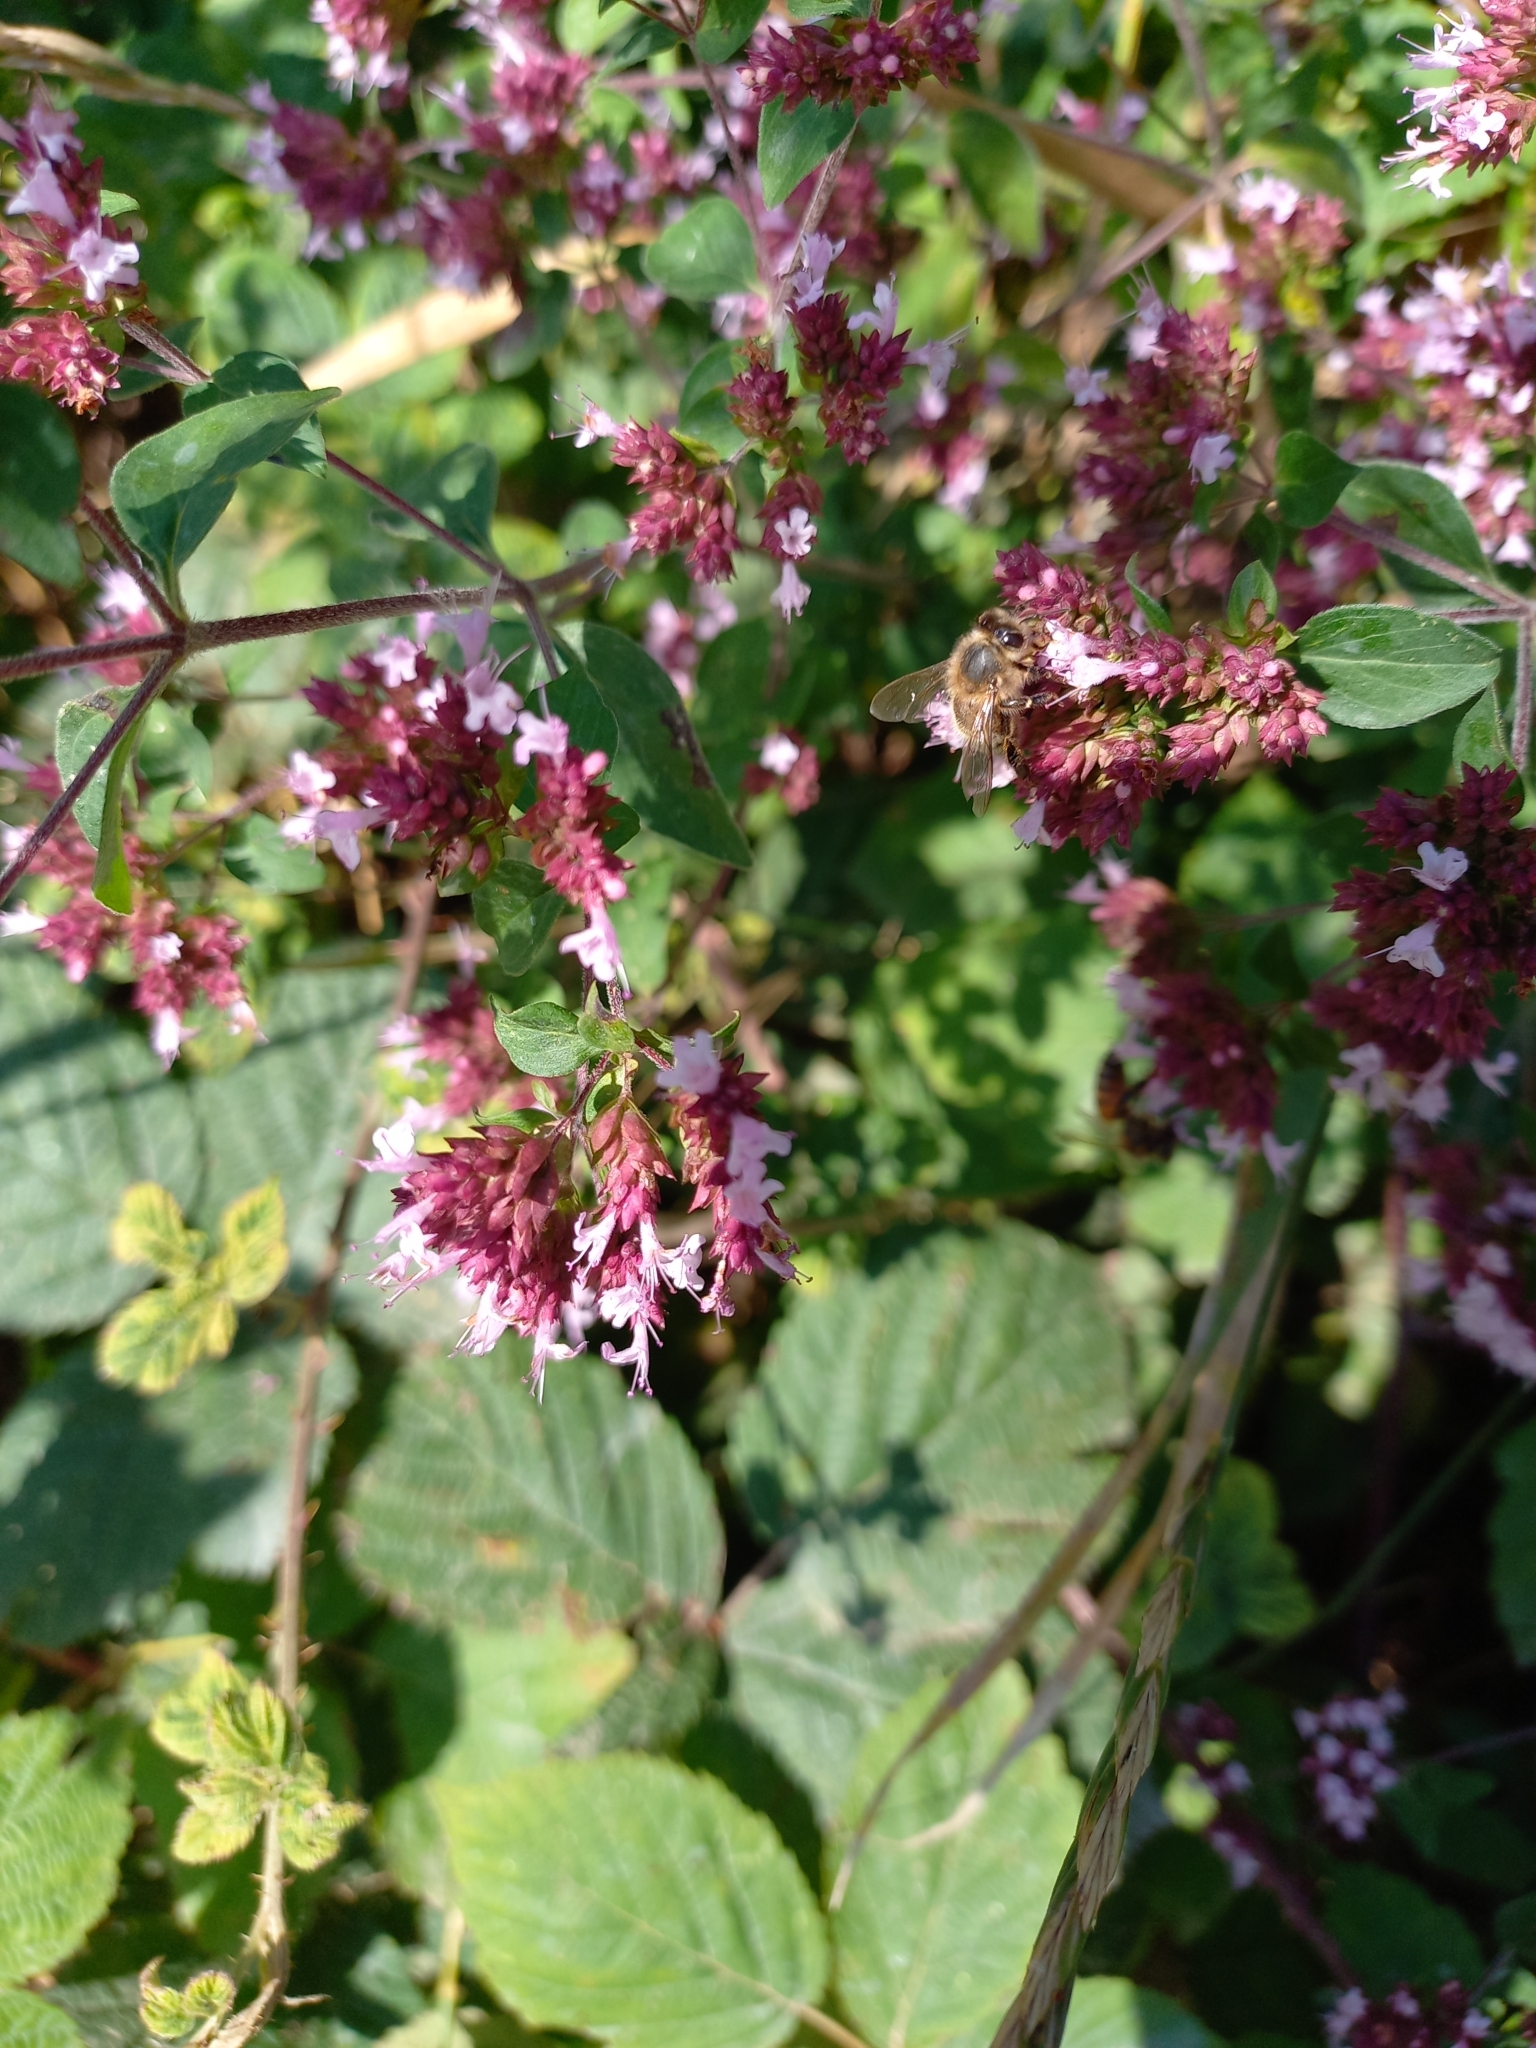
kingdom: Plantae
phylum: Tracheophyta
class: Magnoliopsida
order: Lamiales
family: Lamiaceae
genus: Origanum
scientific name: Origanum vulgare
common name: Wild marjoram
